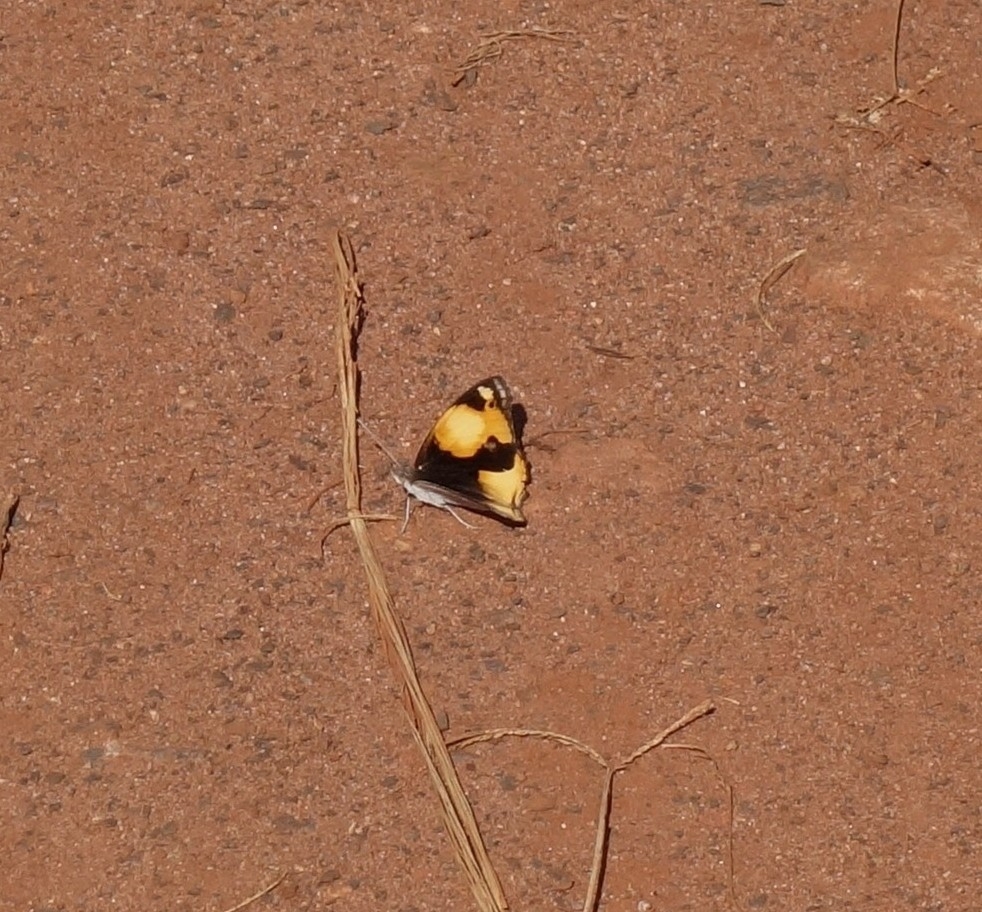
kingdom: Animalia
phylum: Arthropoda
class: Insecta
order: Lepidoptera
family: Nymphalidae
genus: Junonia
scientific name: Junonia hierta
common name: Yellow pansy
